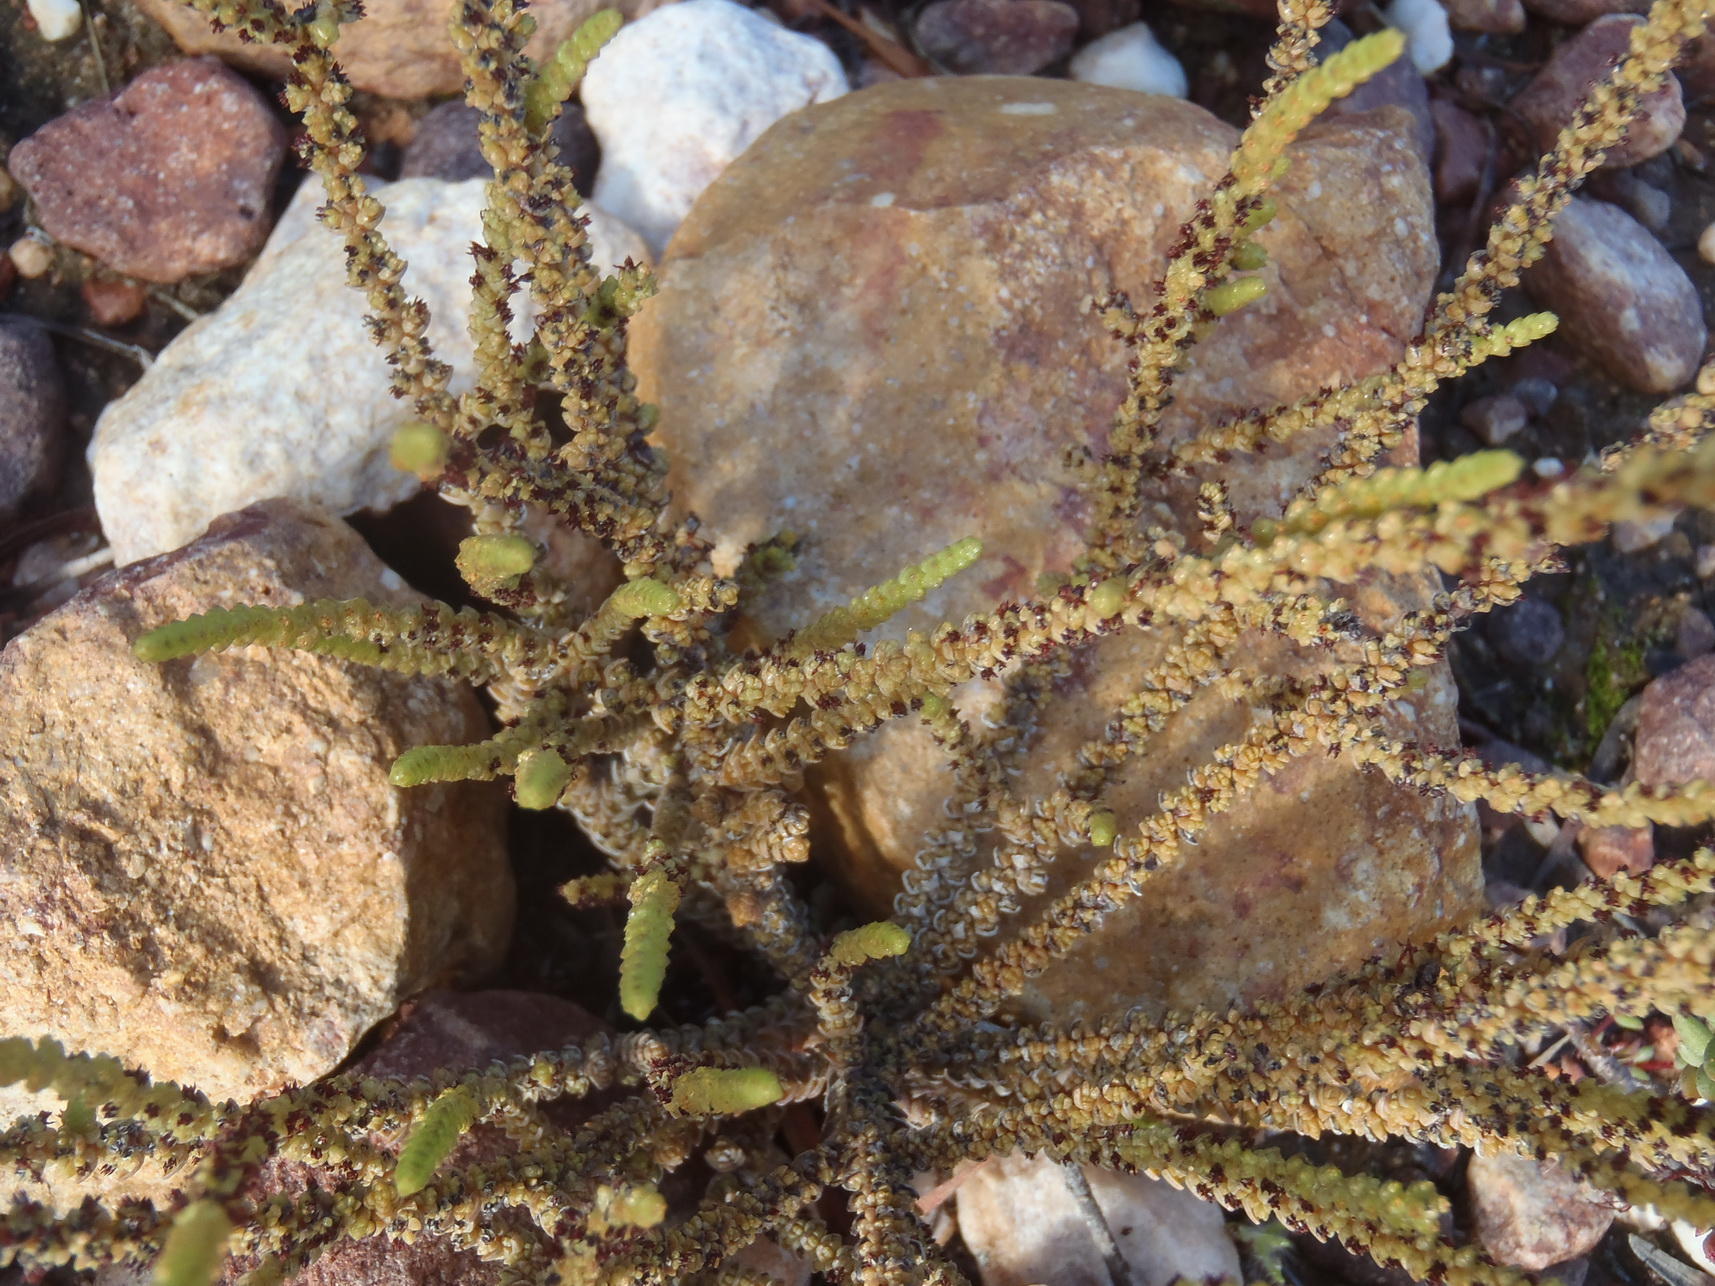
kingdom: Plantae
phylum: Tracheophyta
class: Magnoliopsida
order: Saxifragales
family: Crassulaceae
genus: Crassula
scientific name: Crassula muscosa
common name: Toy-cypress
